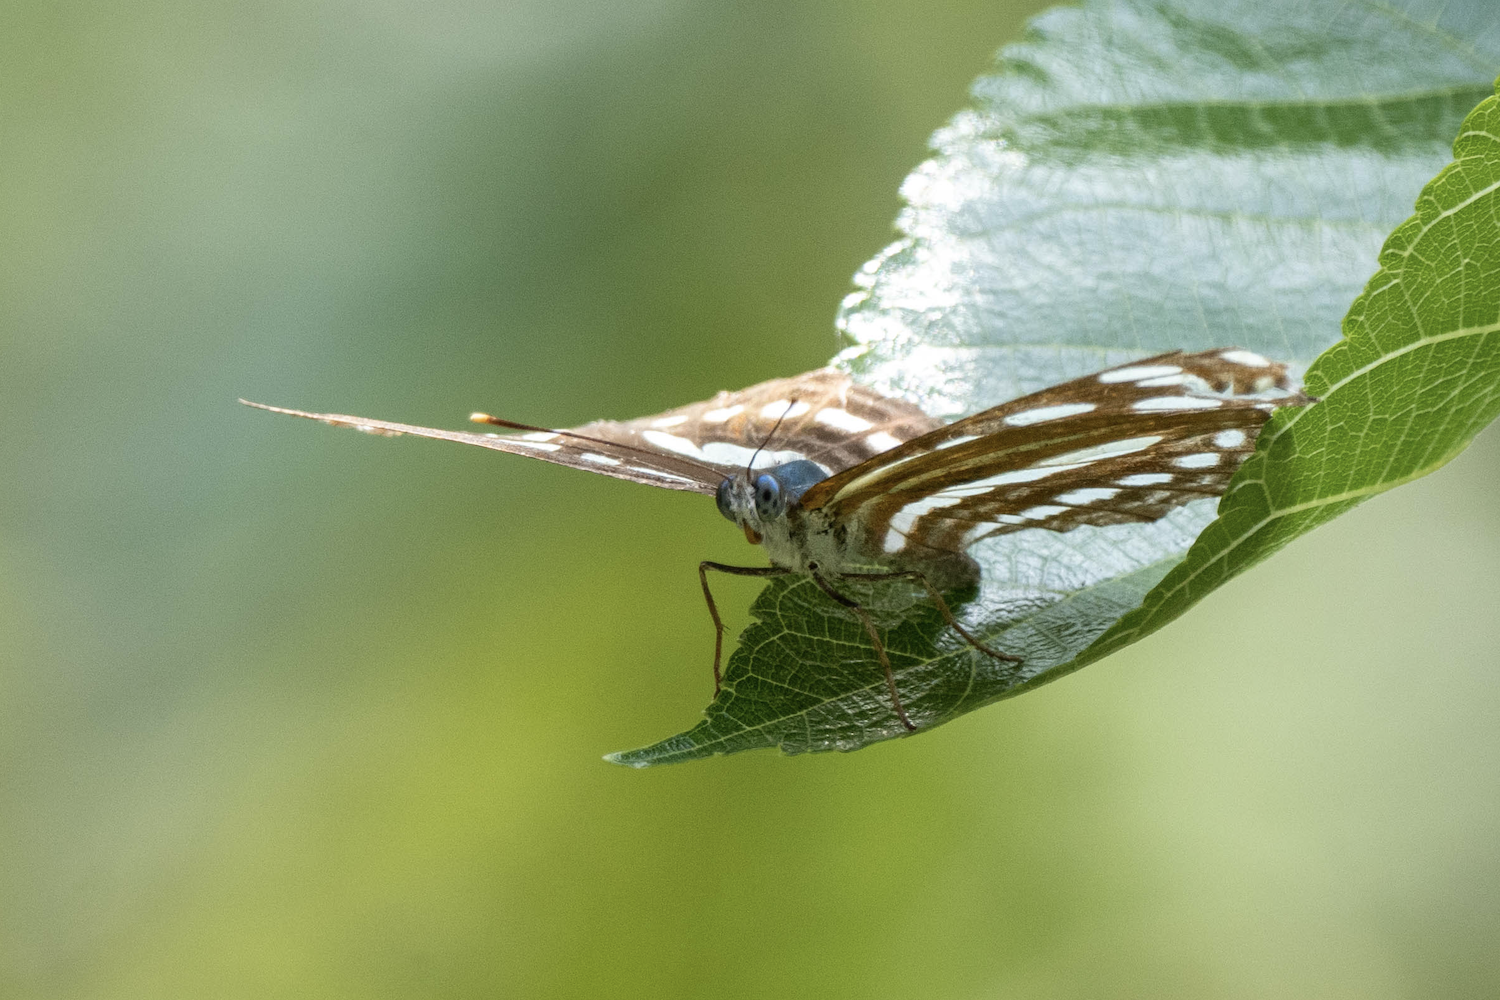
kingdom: Animalia
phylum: Arthropoda
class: Insecta
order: Lepidoptera
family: Nymphalidae
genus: Phaedyma
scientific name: Phaedyma columella
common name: Short banded sailer
